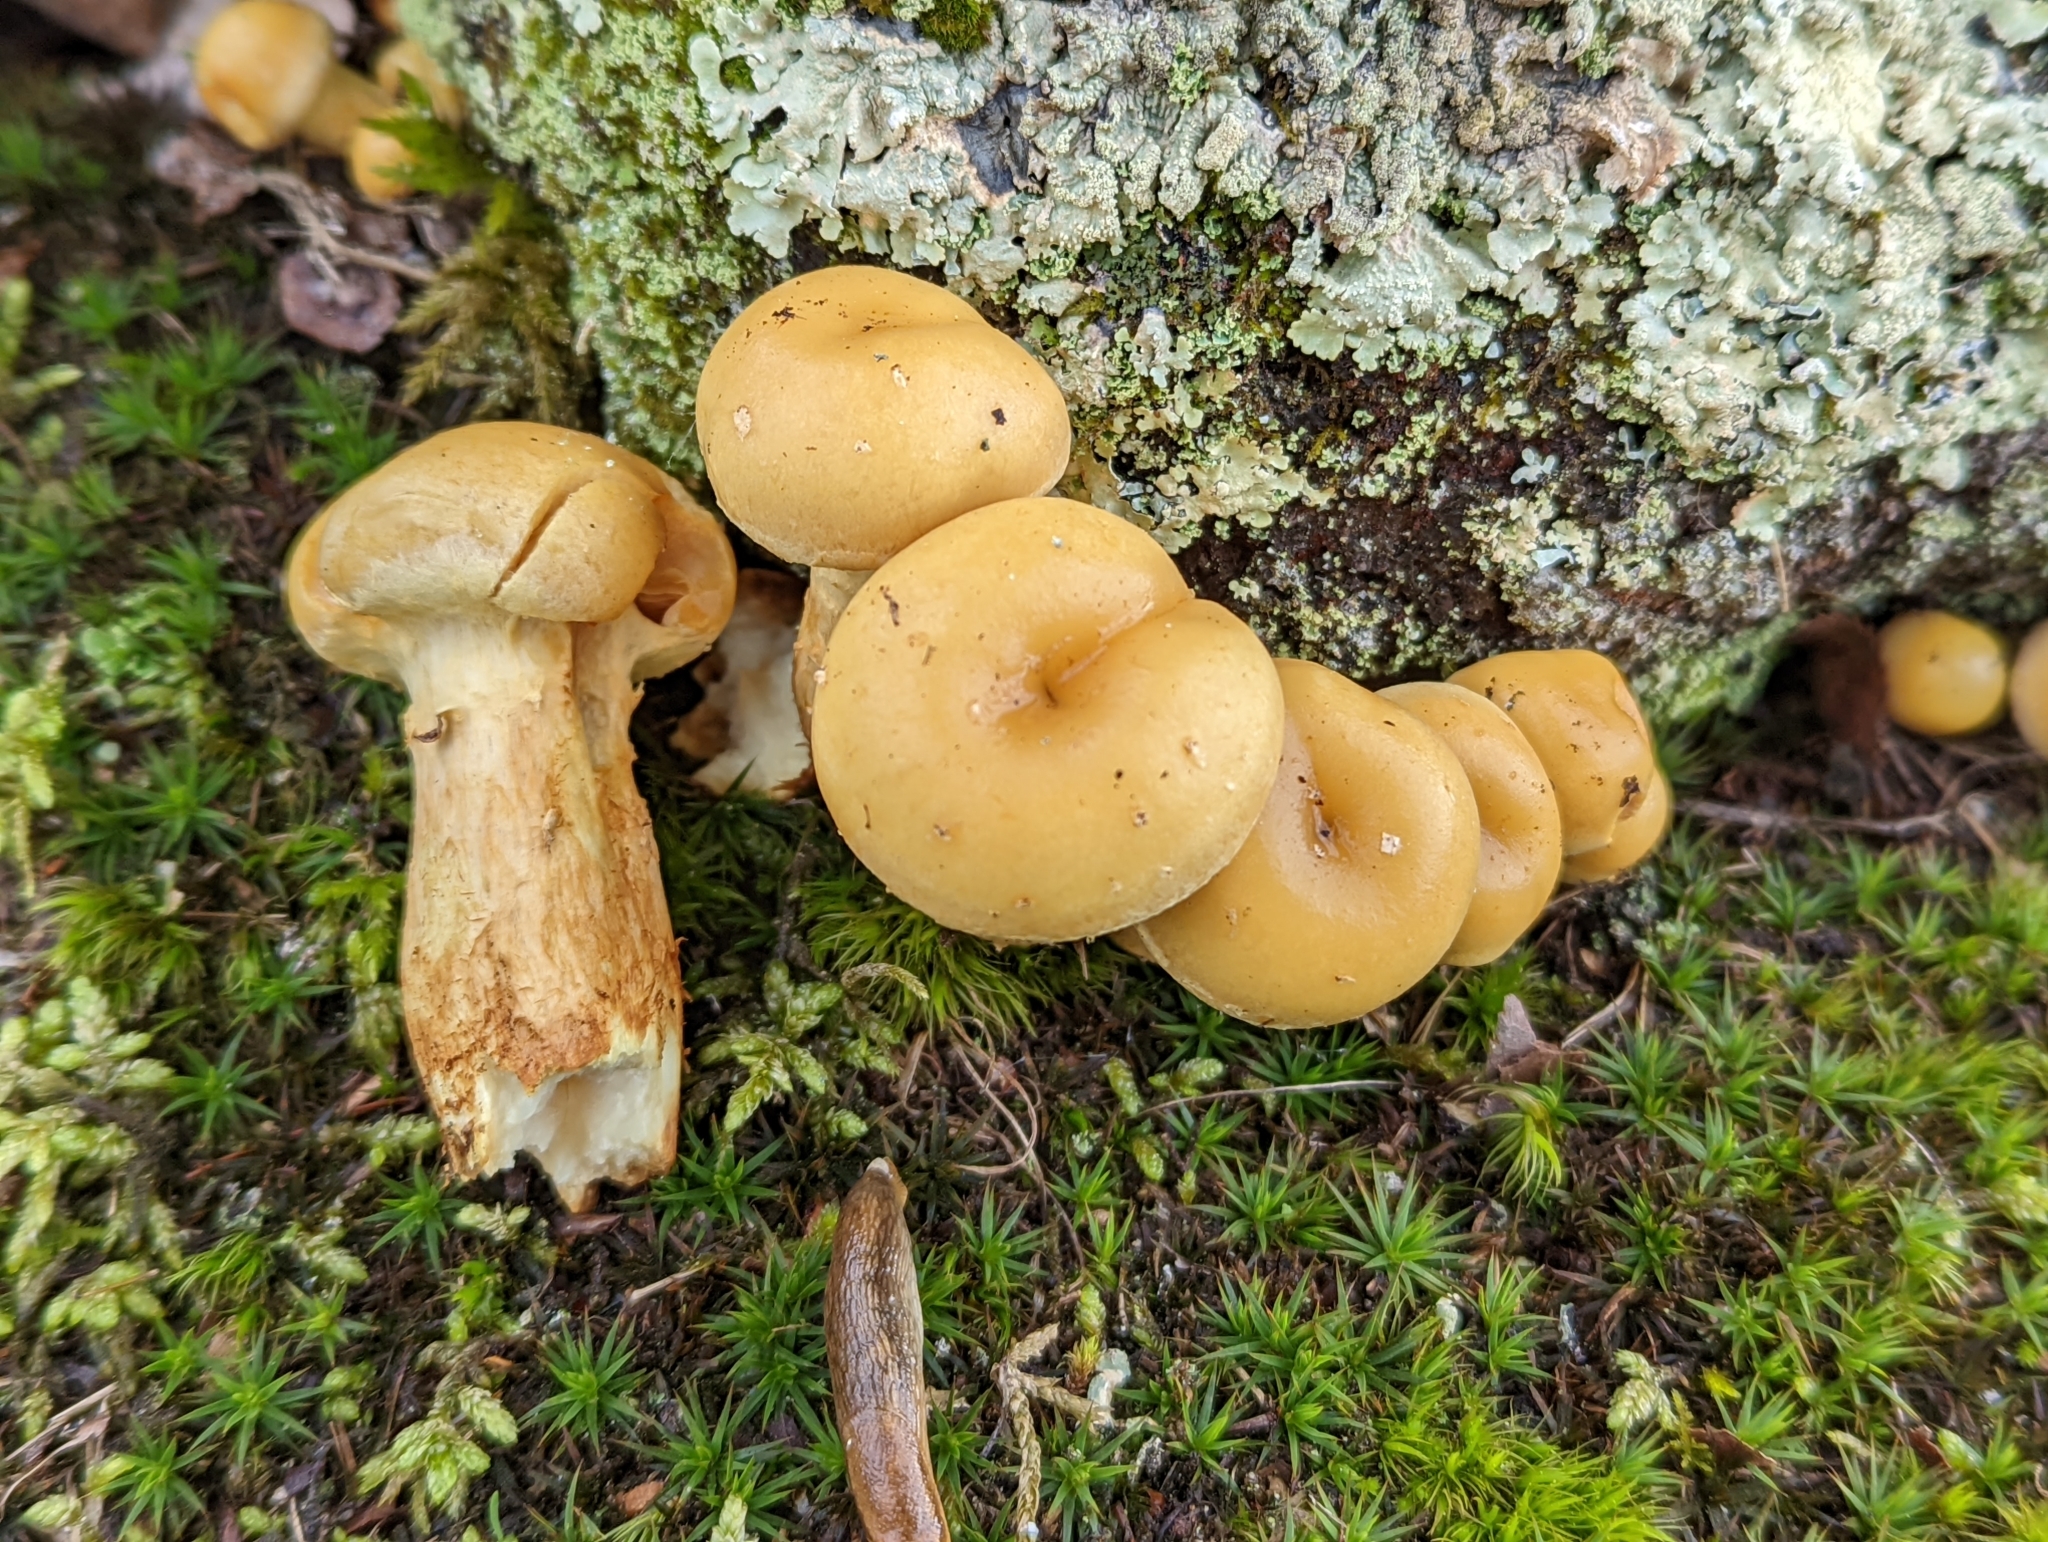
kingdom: Fungi
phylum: Basidiomycota
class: Agaricomycetes
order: Agaricales
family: Hymenogastraceae
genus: Flammula
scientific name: Flammula alnicola
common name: Alder scalycap
